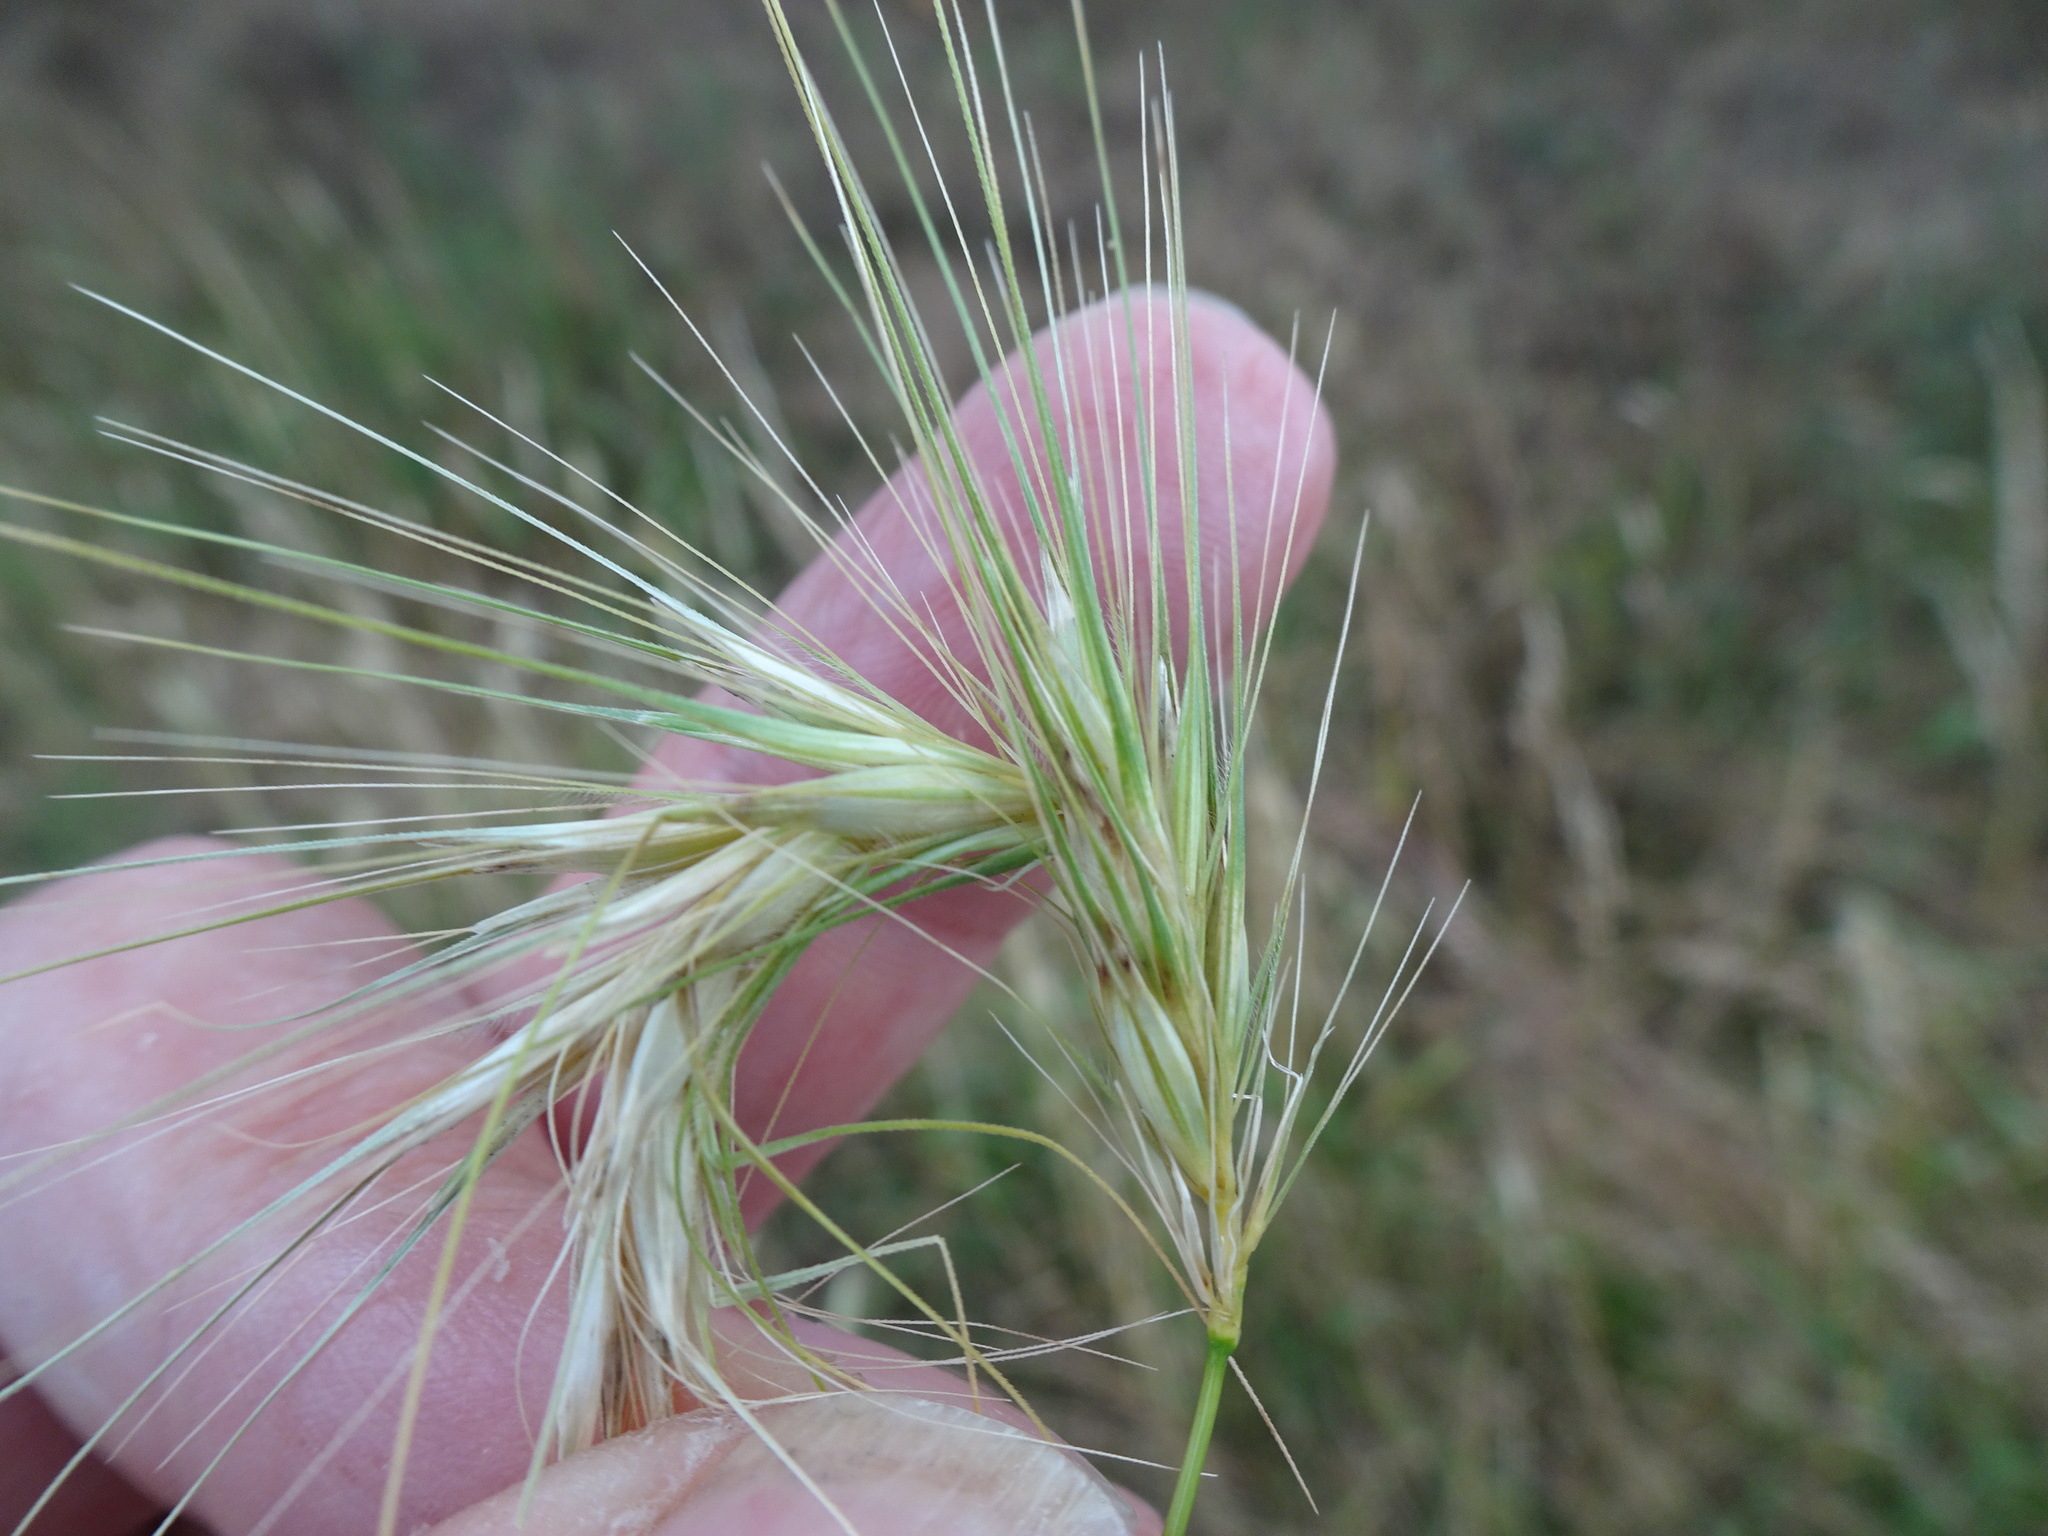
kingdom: Plantae
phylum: Tracheophyta
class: Liliopsida
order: Poales
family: Poaceae
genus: Hordeum
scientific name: Hordeum murinum
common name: Wall barley
